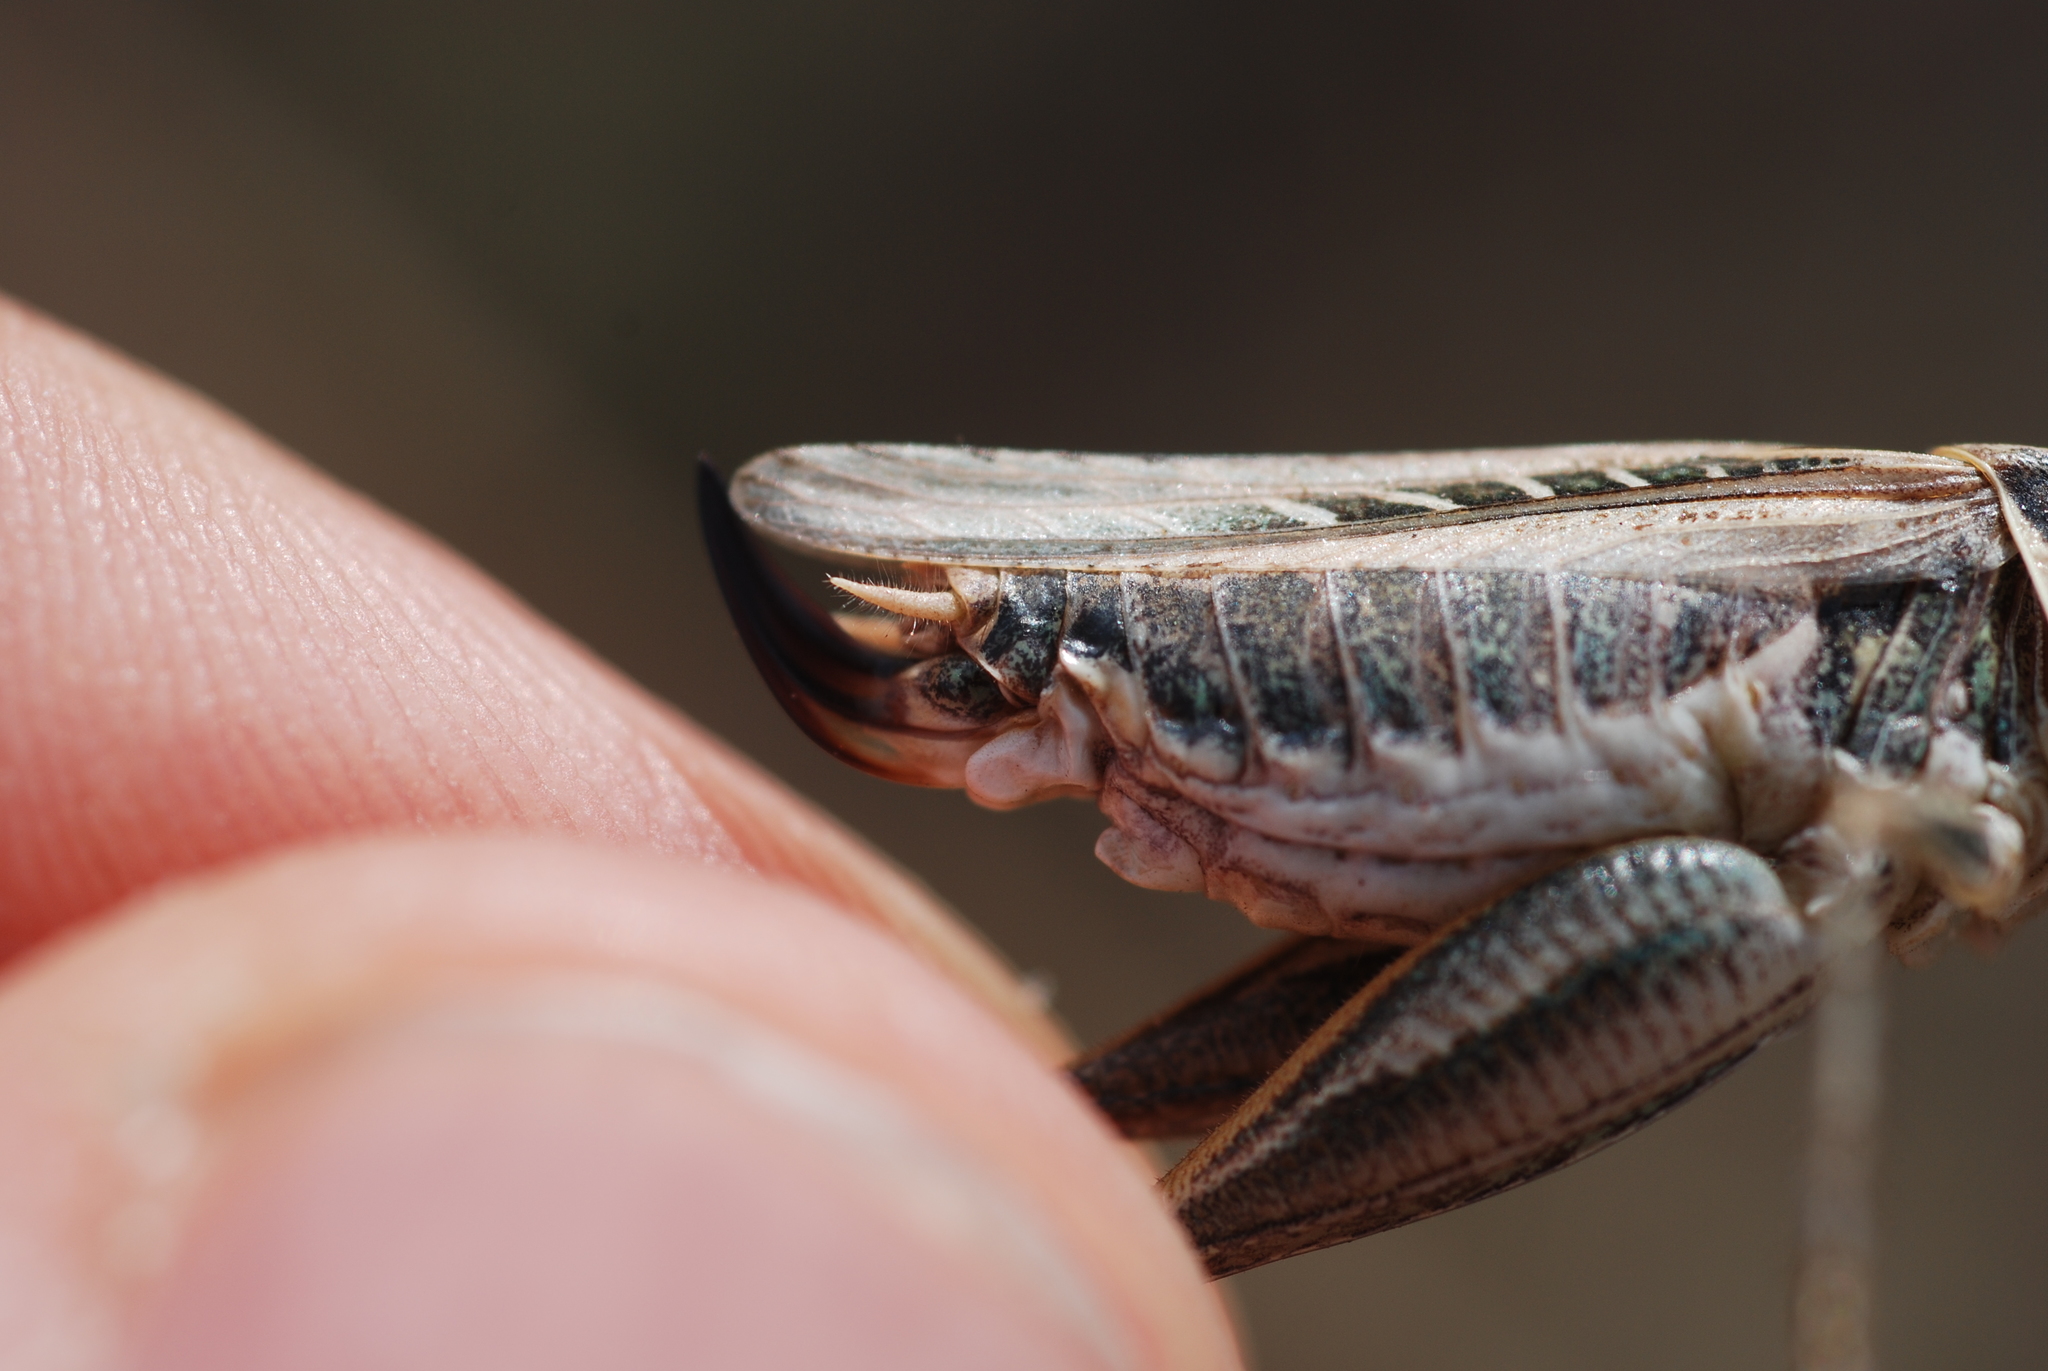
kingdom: Animalia
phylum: Arthropoda
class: Insecta
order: Orthoptera
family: Tettigoniidae
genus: Tessellana
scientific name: Tessellana tessellata
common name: Grasshopper
